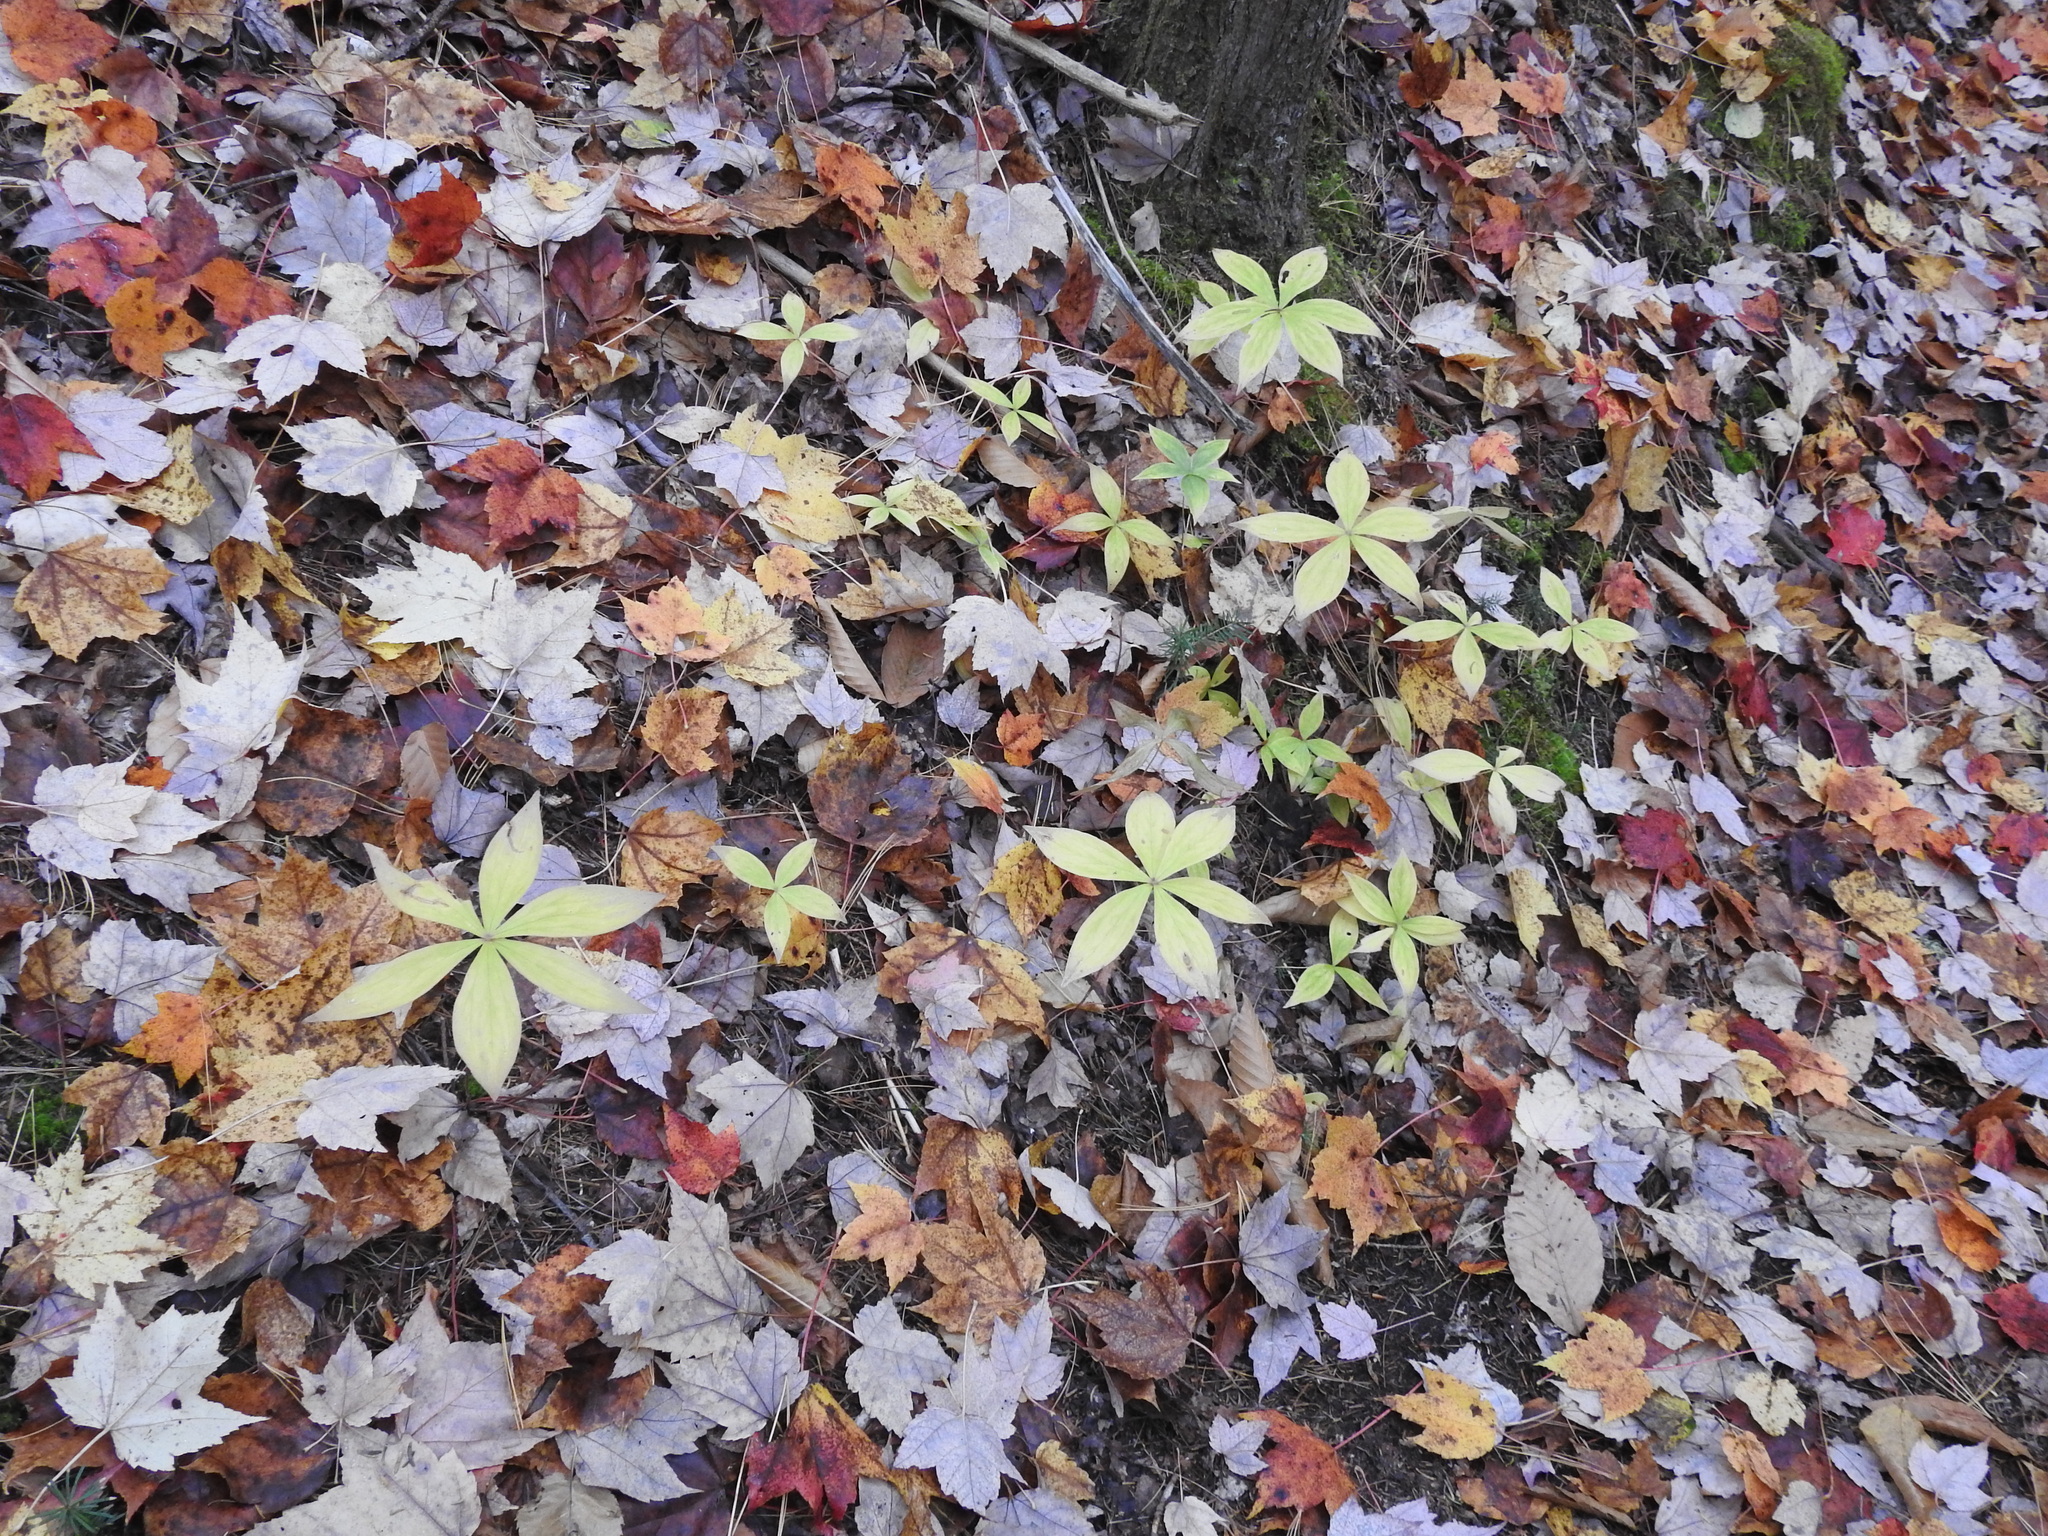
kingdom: Plantae
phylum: Tracheophyta
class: Liliopsida
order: Liliales
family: Liliaceae
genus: Medeola
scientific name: Medeola virginiana
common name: Indian cucumber-root
